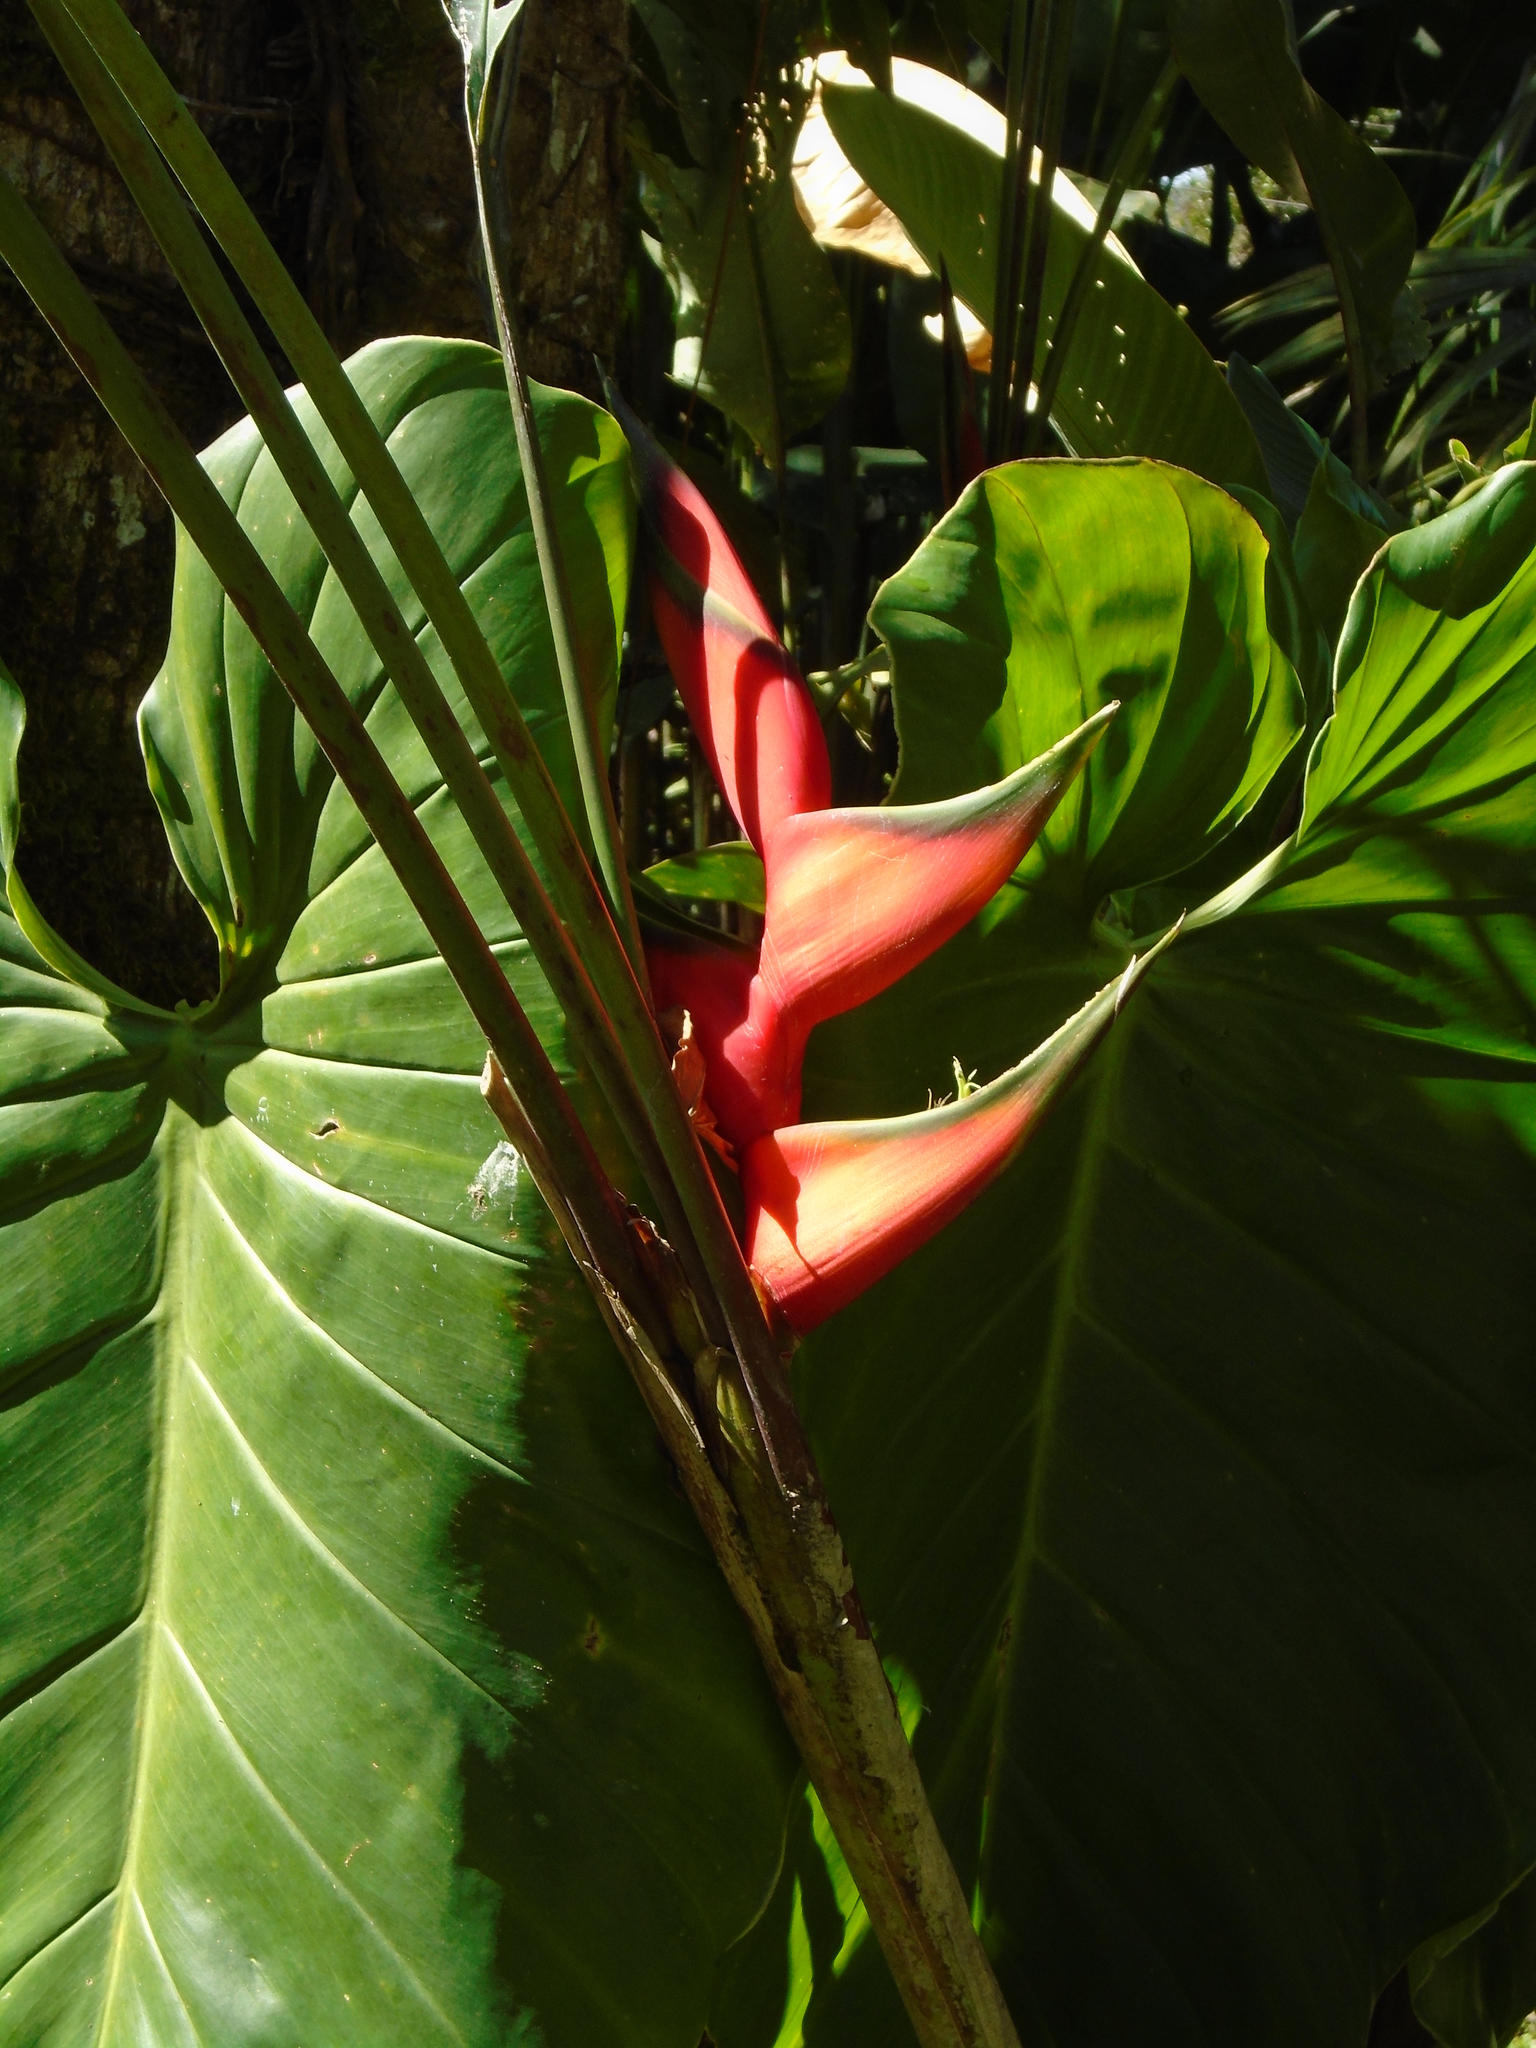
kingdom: Plantae
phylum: Tracheophyta
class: Liliopsida
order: Zingiberales
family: Heliconiaceae
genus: Heliconia
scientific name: Heliconia bihai
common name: Macaw flower
